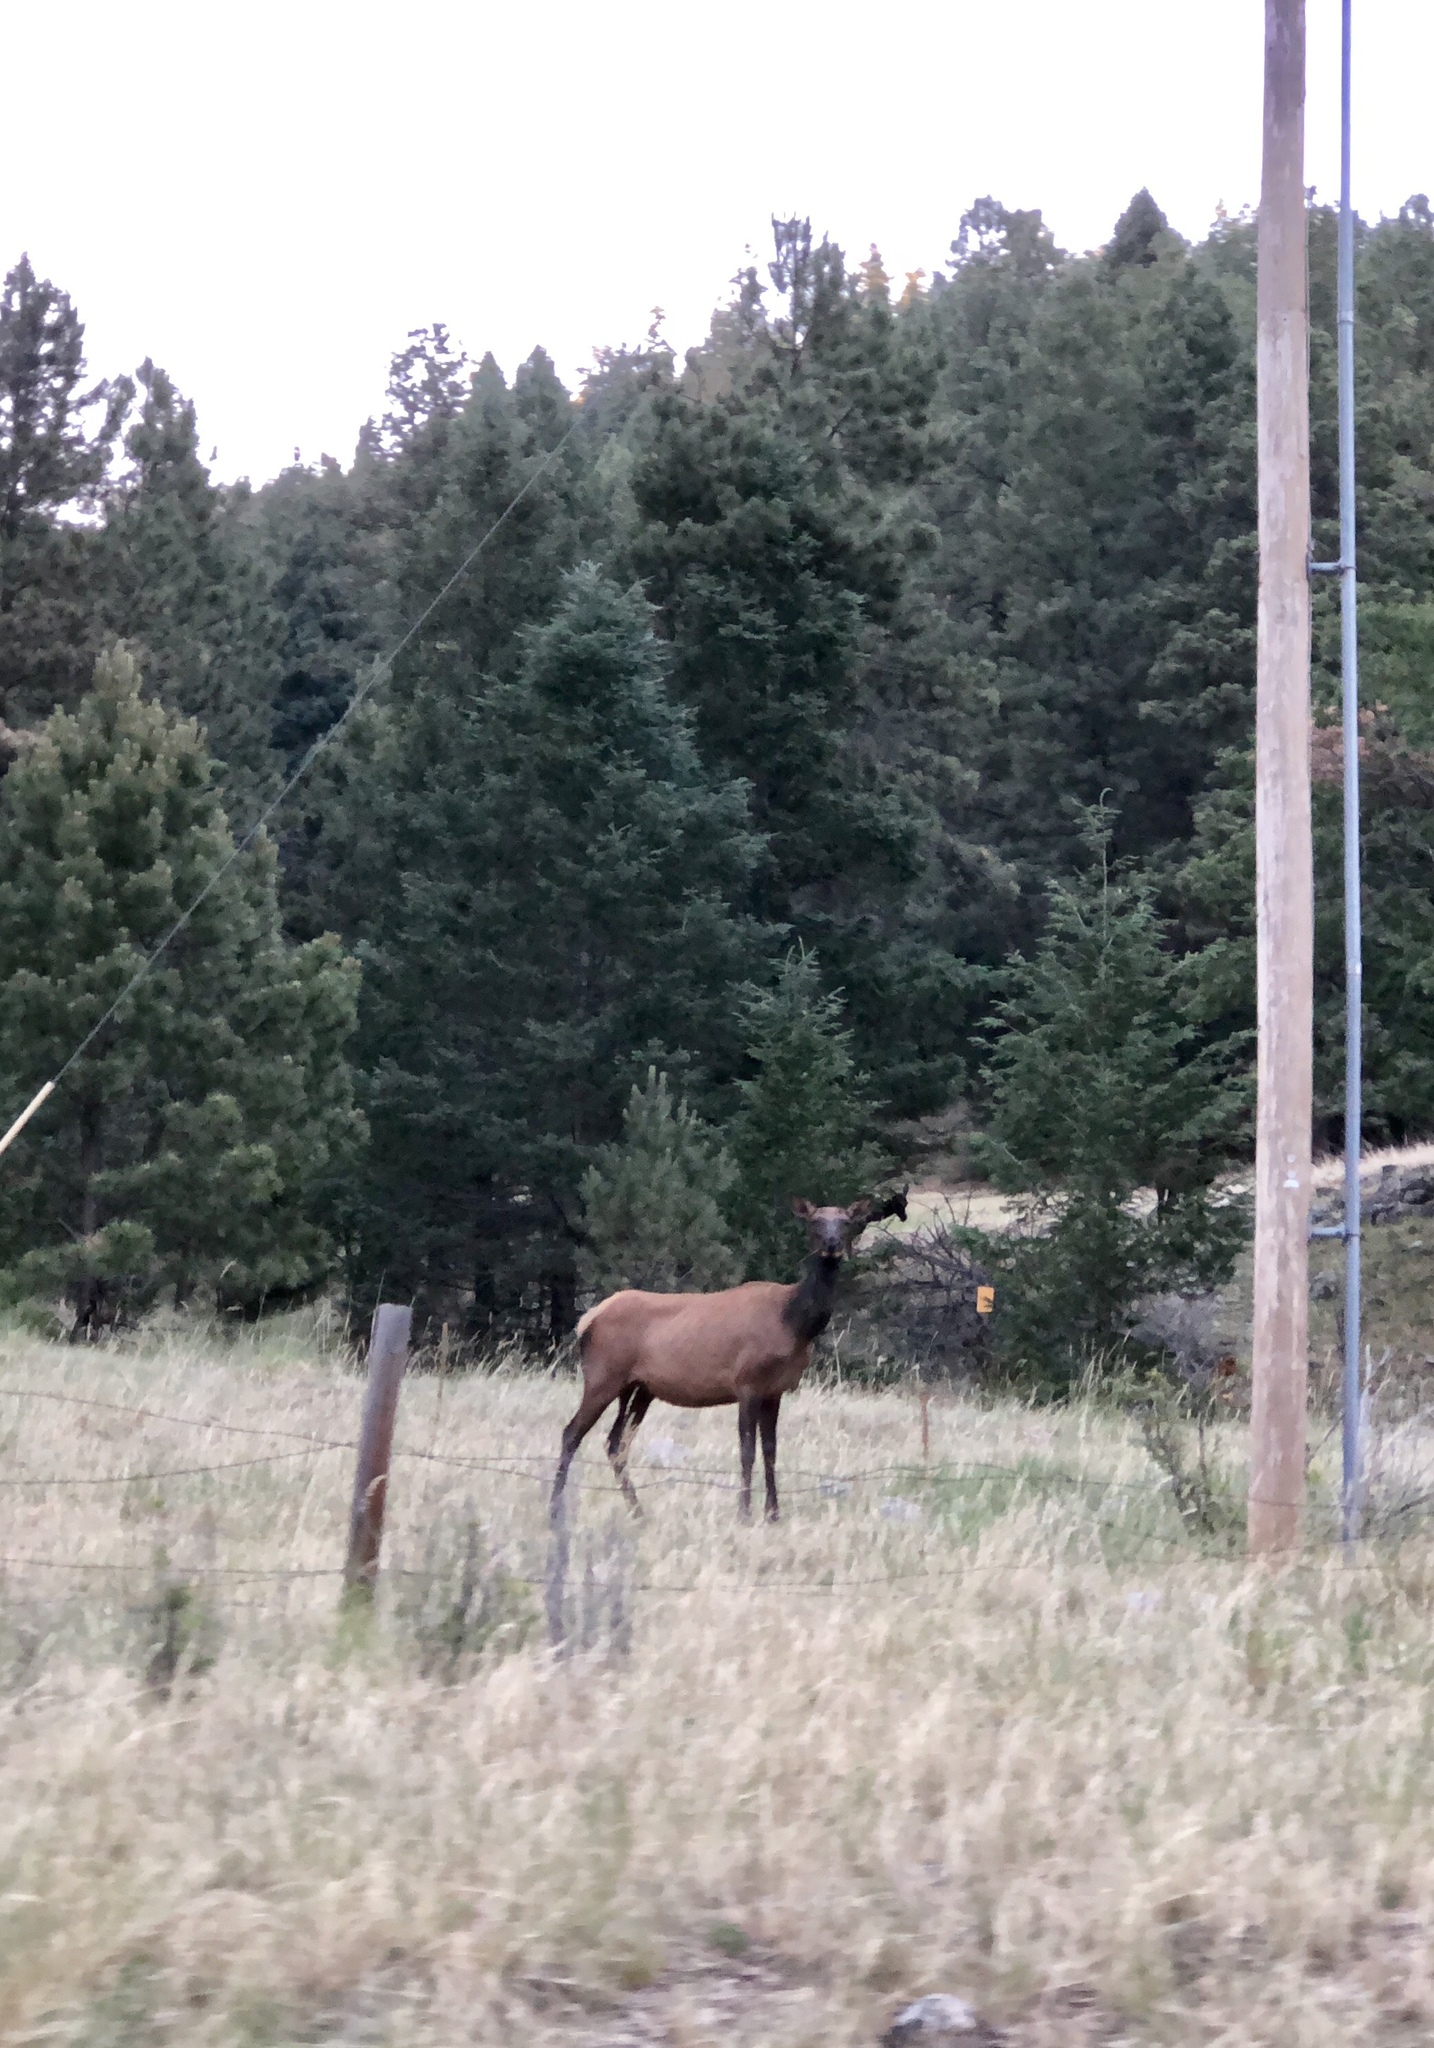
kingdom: Animalia
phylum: Chordata
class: Mammalia
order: Artiodactyla
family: Cervidae
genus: Cervus
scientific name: Cervus elaphus
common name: Red deer
